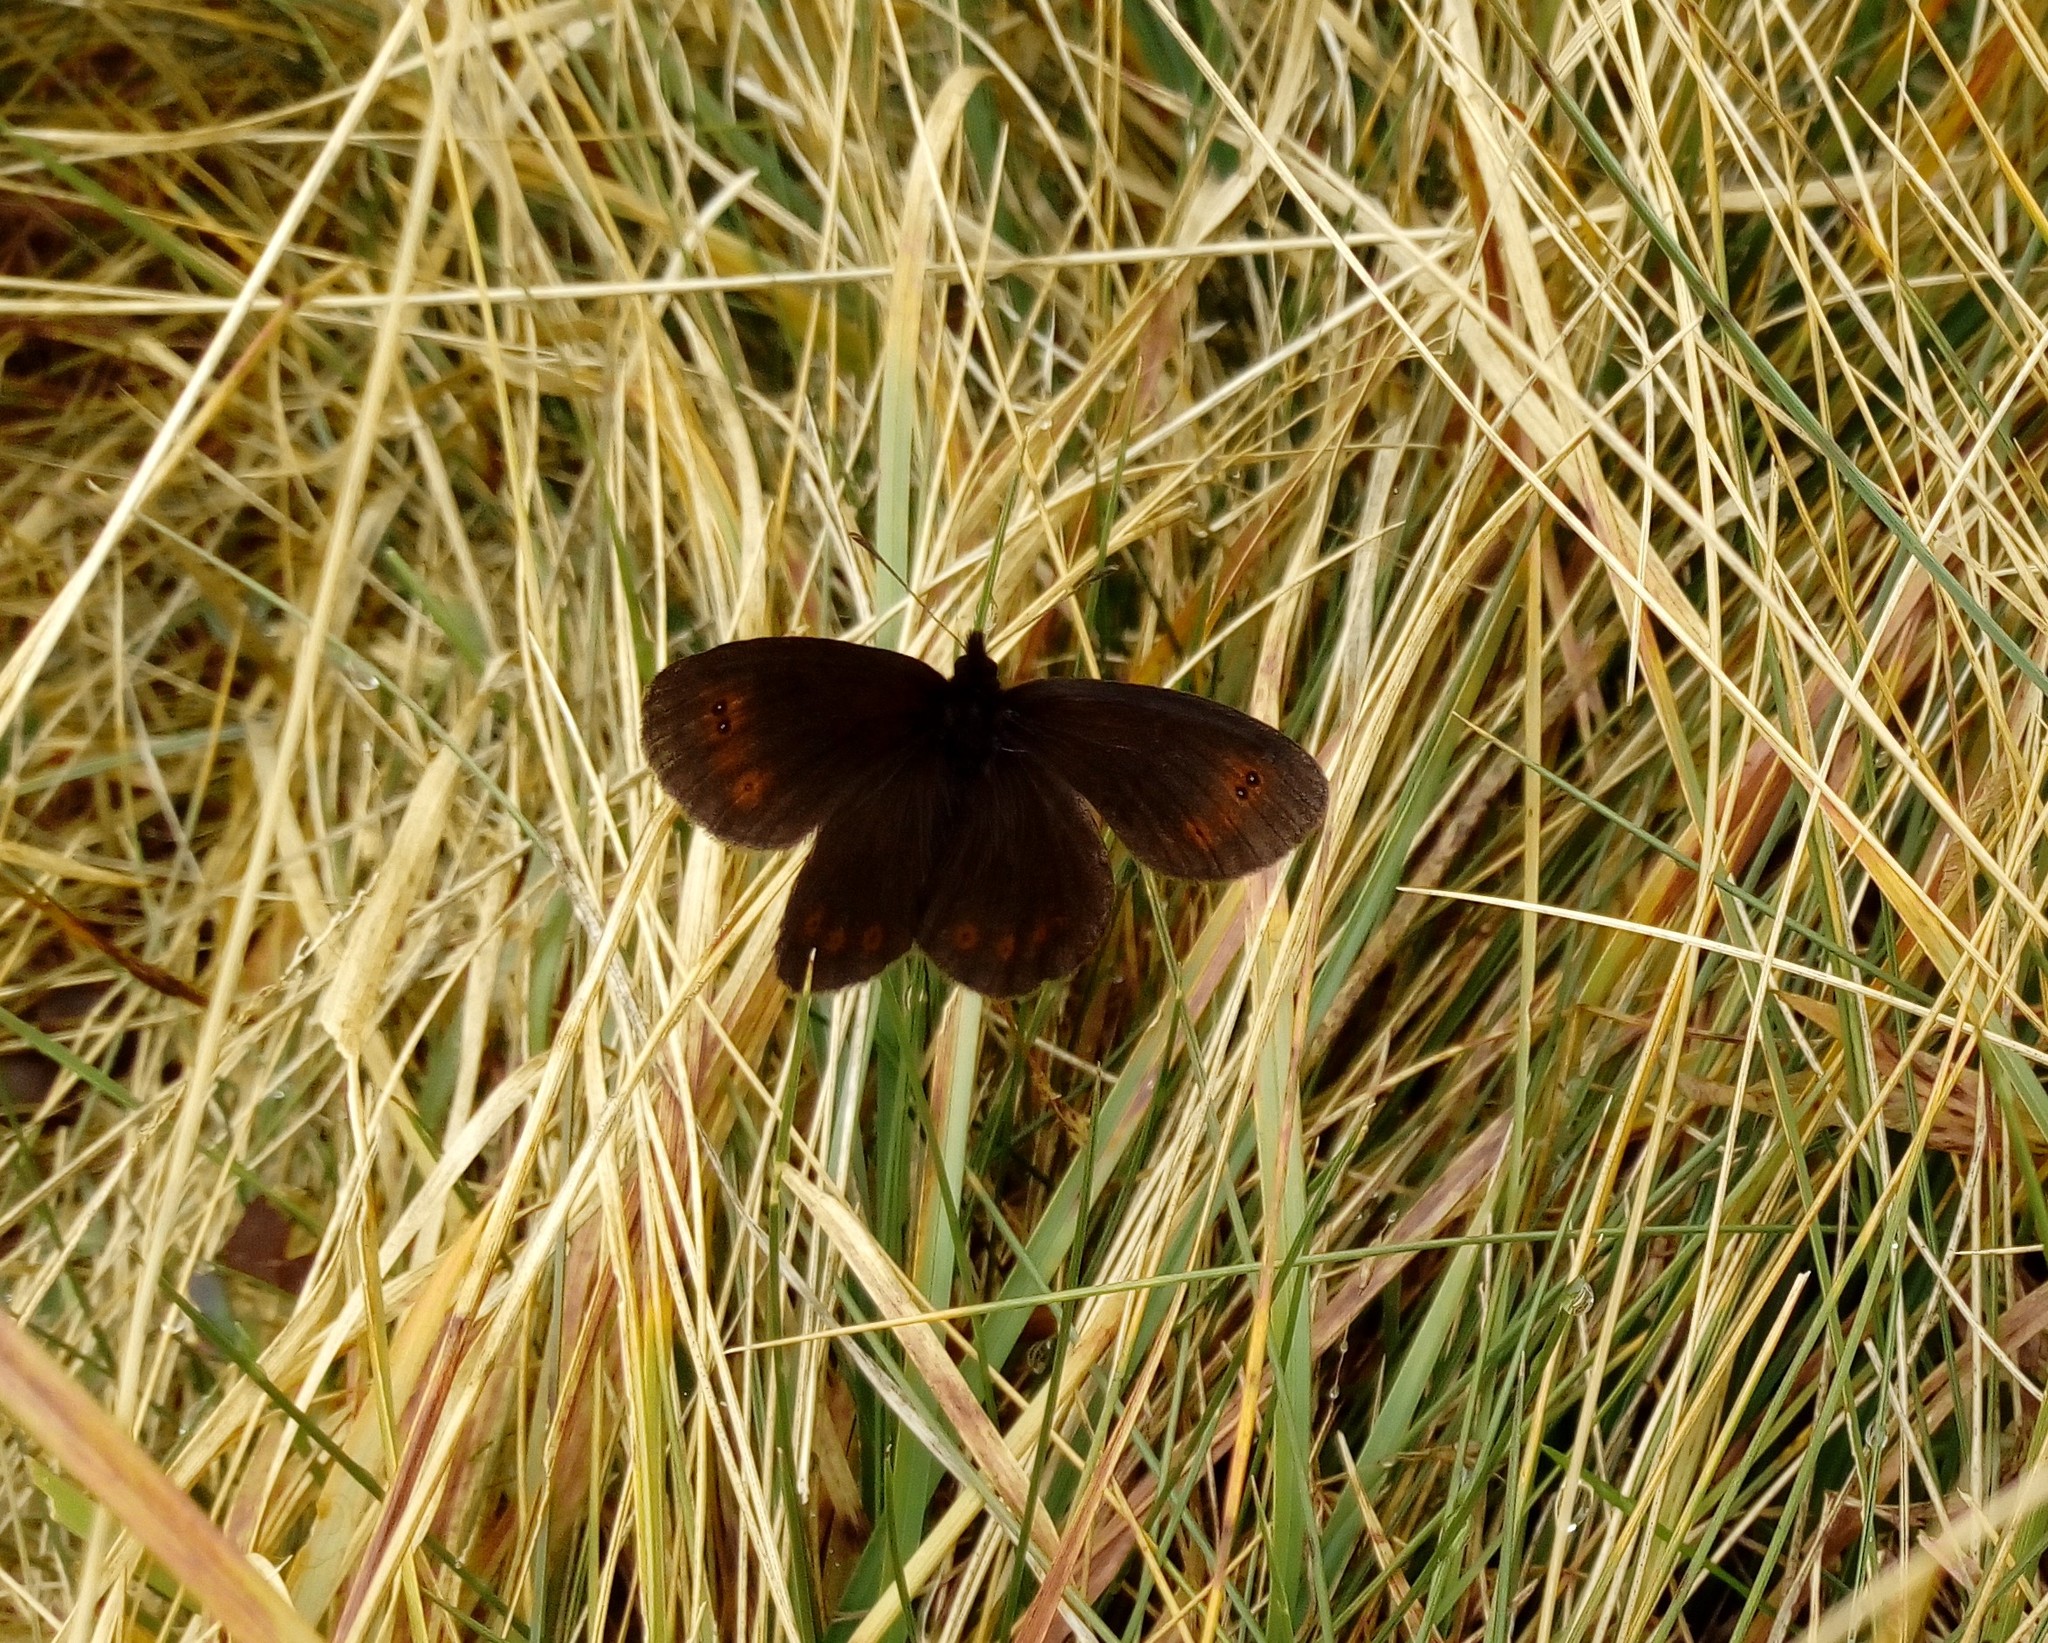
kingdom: Animalia
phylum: Arthropoda
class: Insecta
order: Lepidoptera
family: Nymphalidae
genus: Erebia
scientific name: Erebia pronoe
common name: Water ringlet
